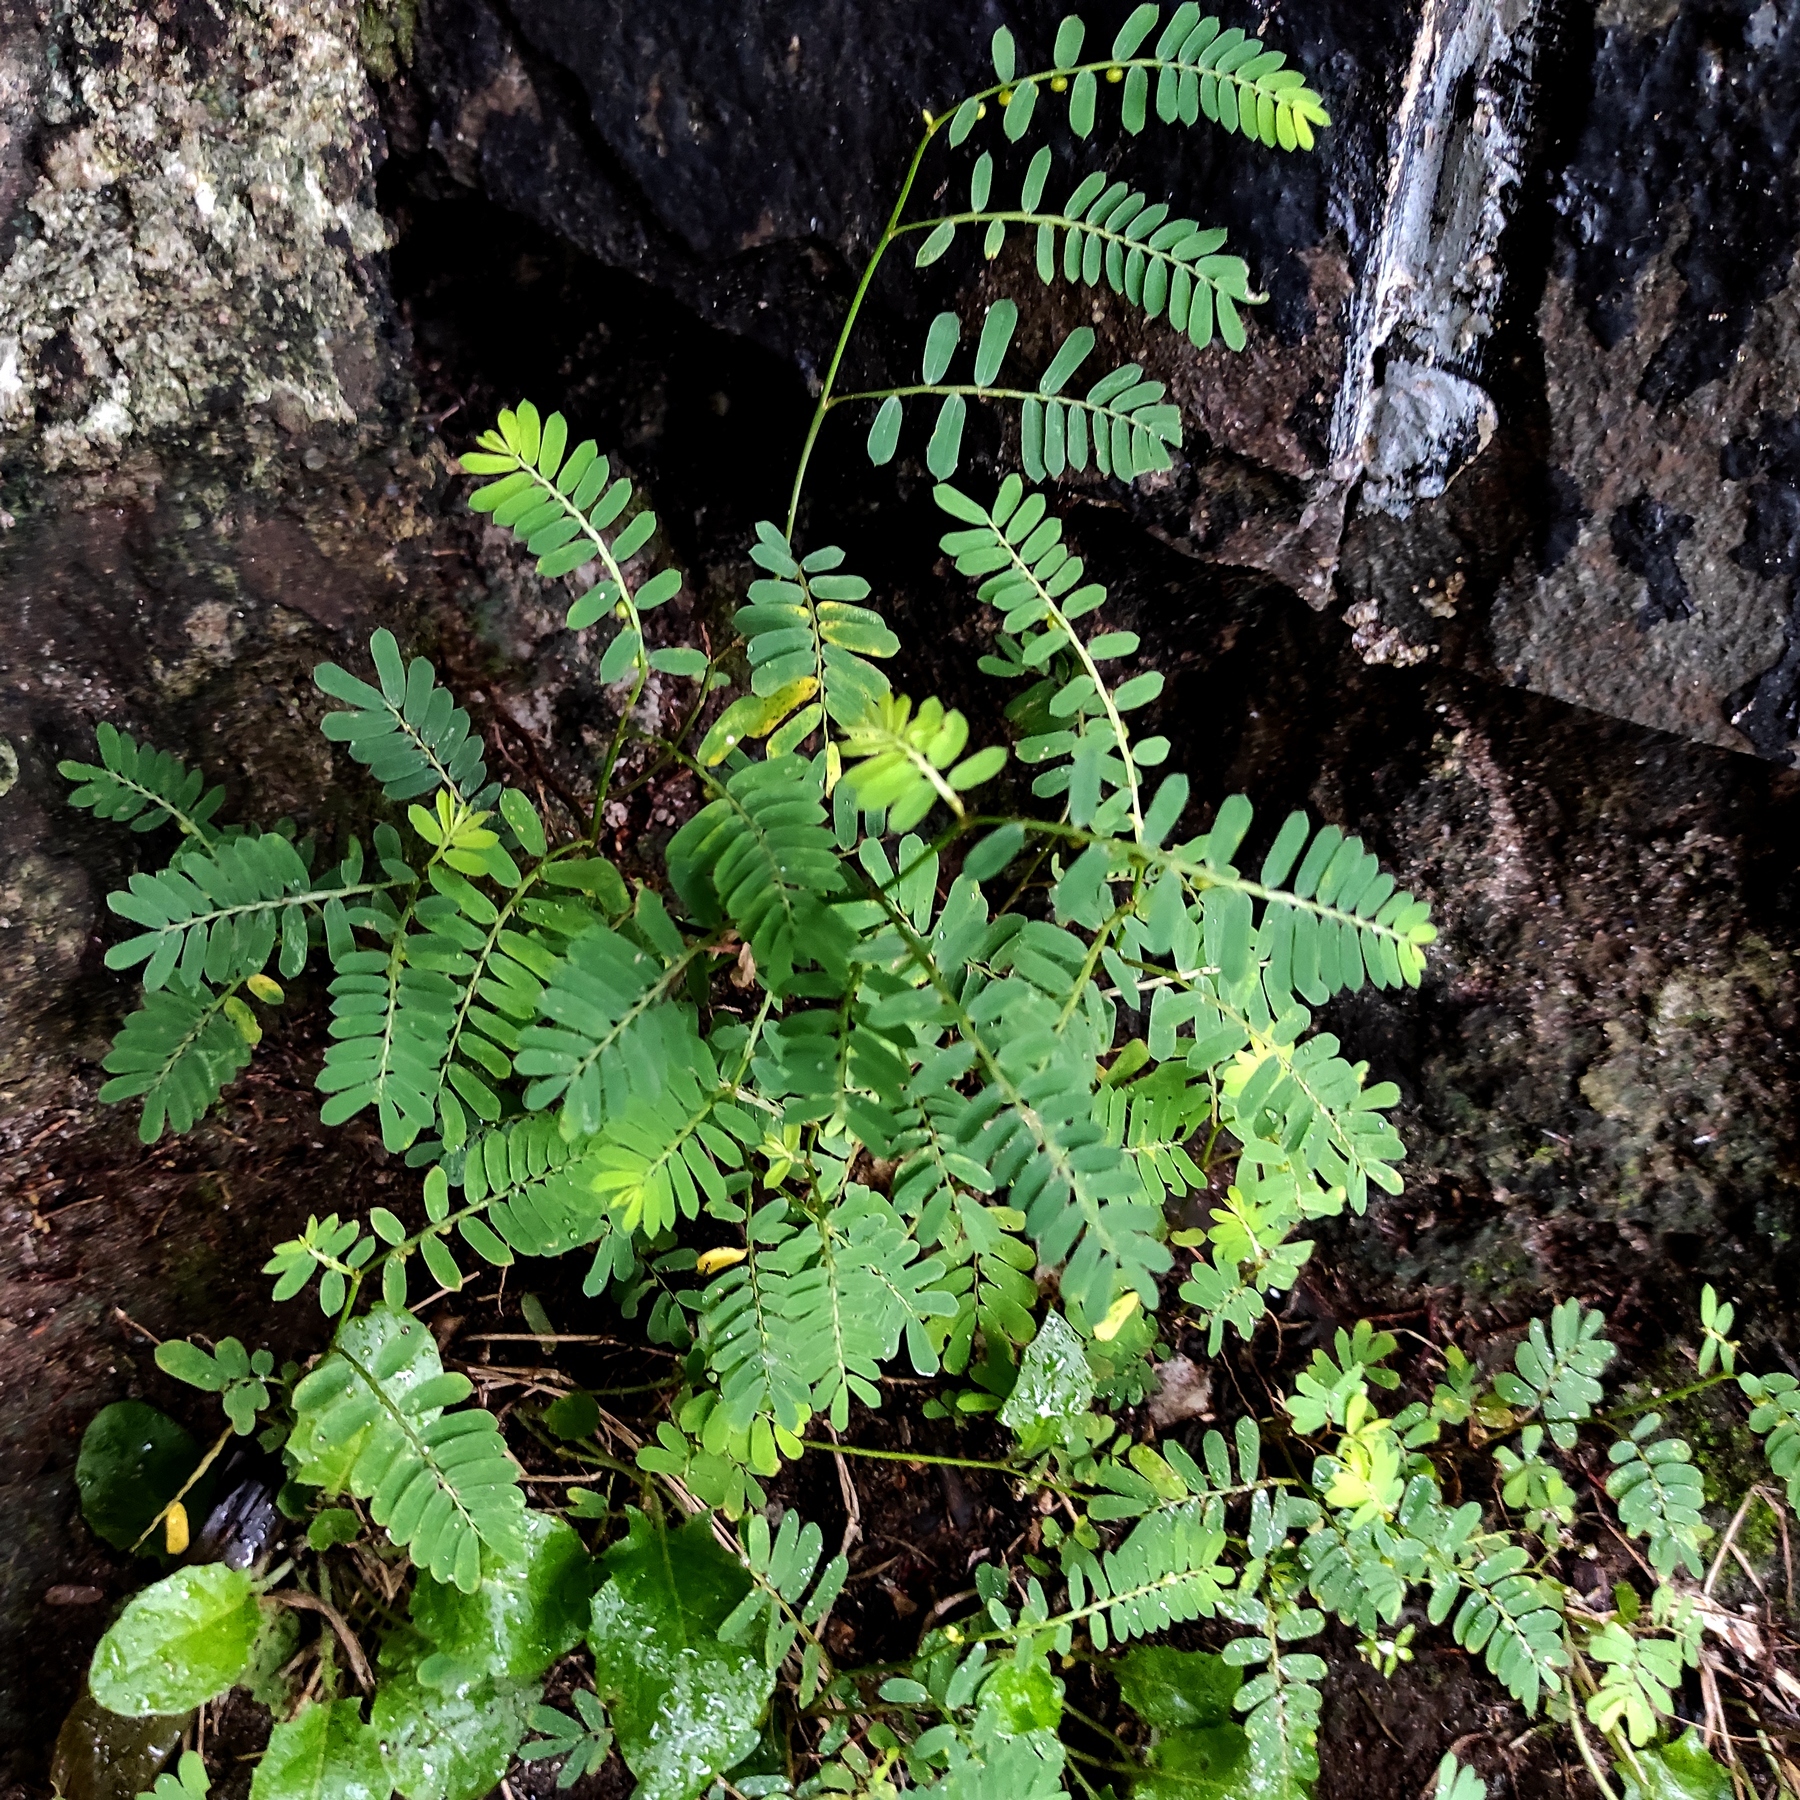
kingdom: Plantae
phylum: Tracheophyta
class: Magnoliopsida
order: Malpighiales
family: Phyllanthaceae
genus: Phyllanthus
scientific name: Phyllanthus urinaria
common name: Chamber bitter
